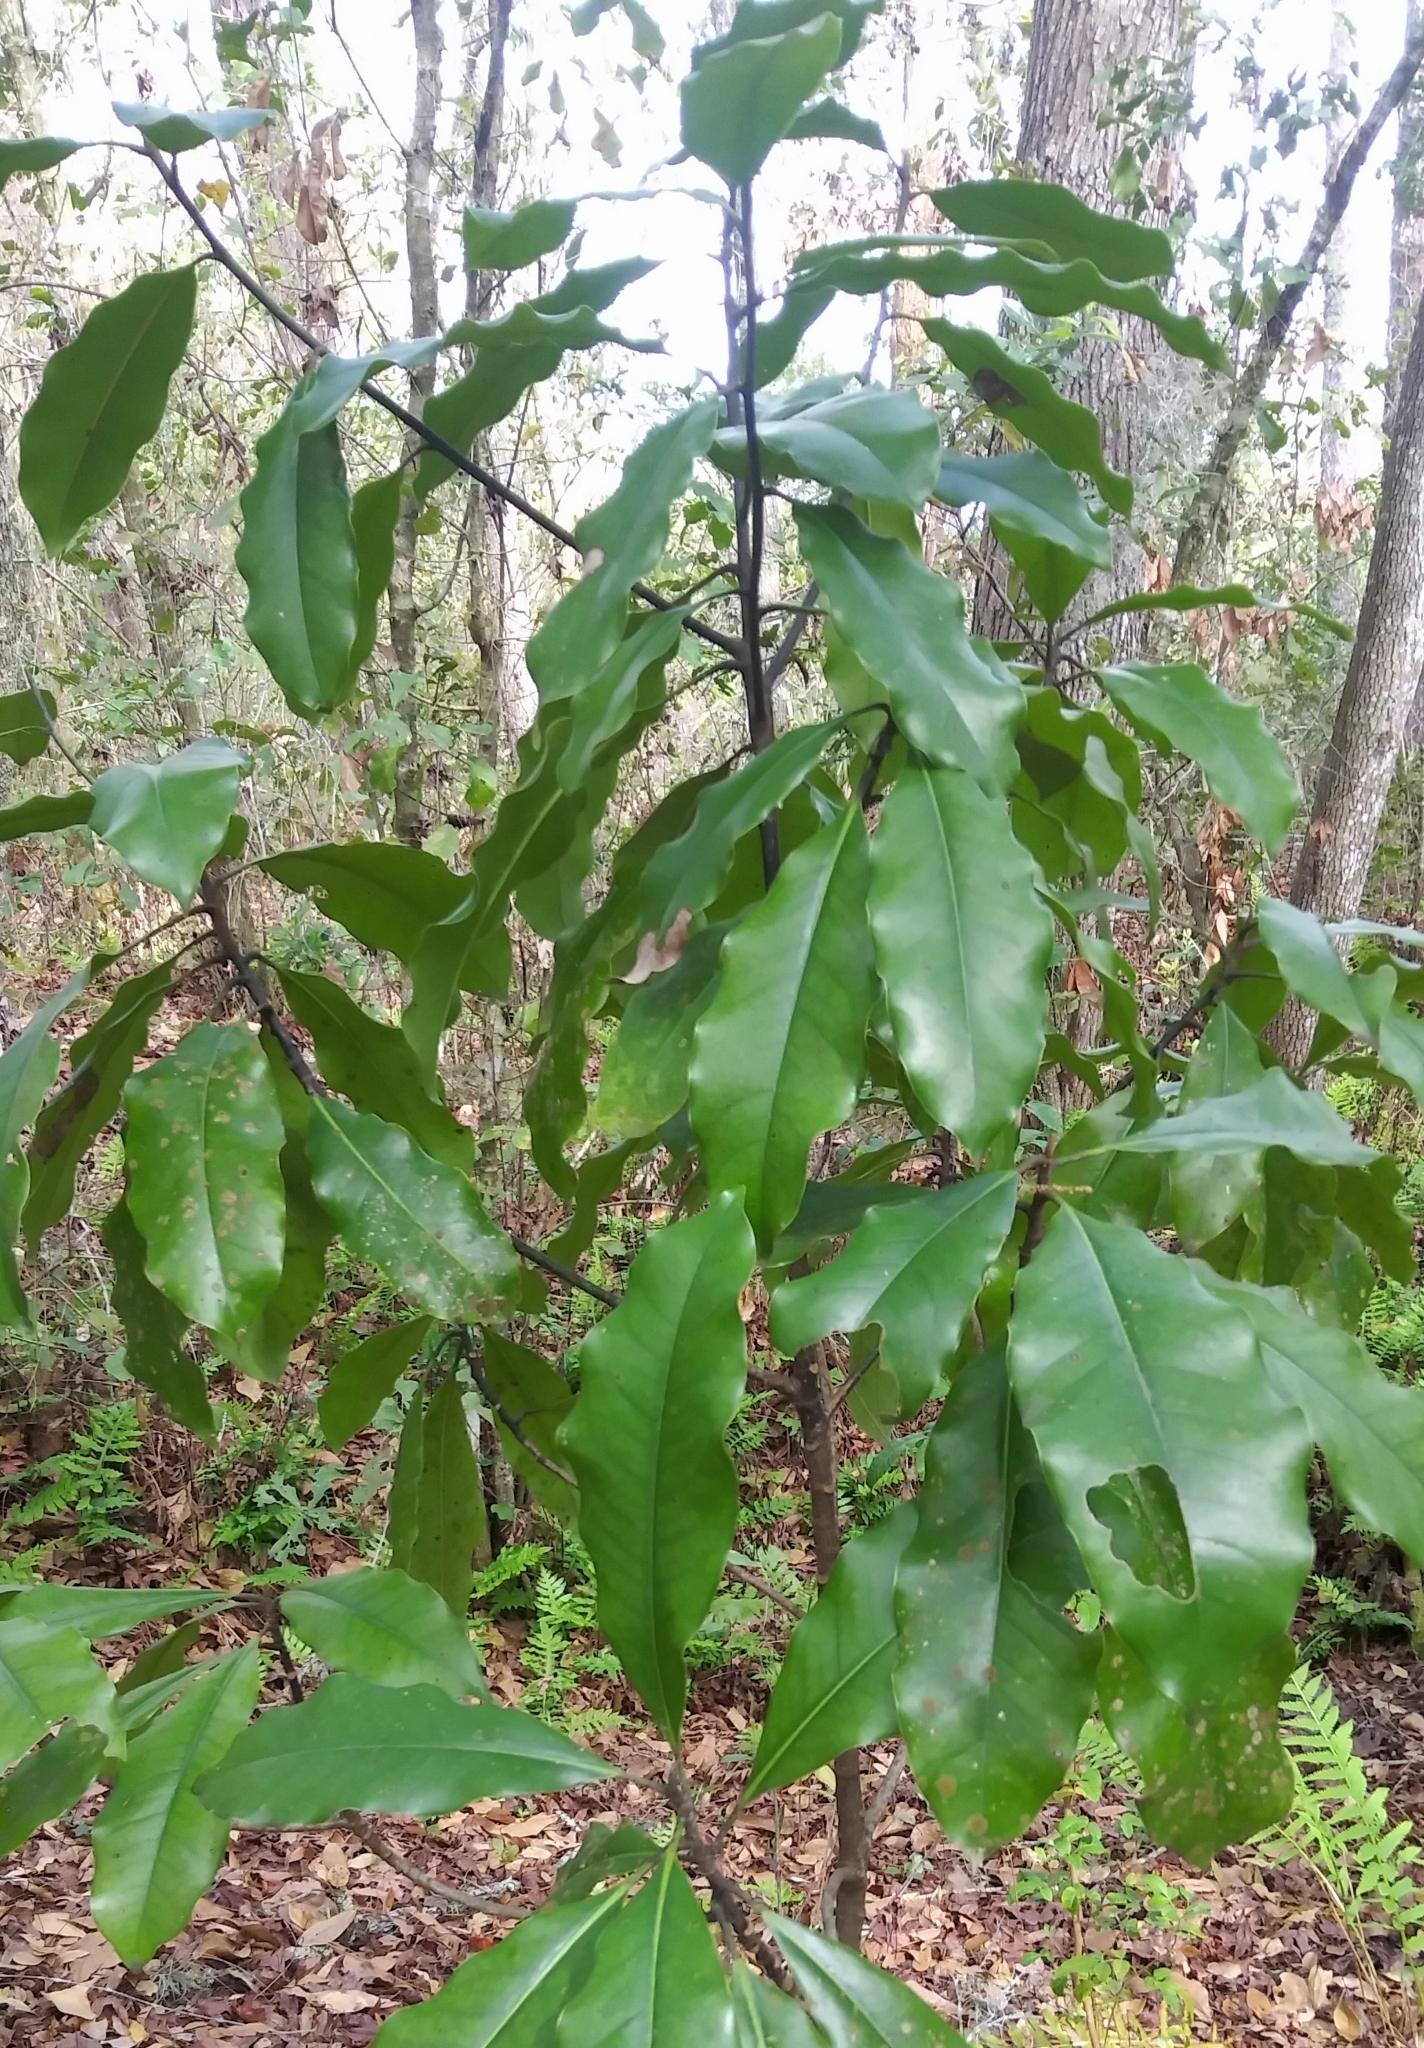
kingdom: Plantae
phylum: Tracheophyta
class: Magnoliopsida
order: Magnoliales
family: Magnoliaceae
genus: Magnolia
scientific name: Magnolia grandiflora
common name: Southern magnolia
